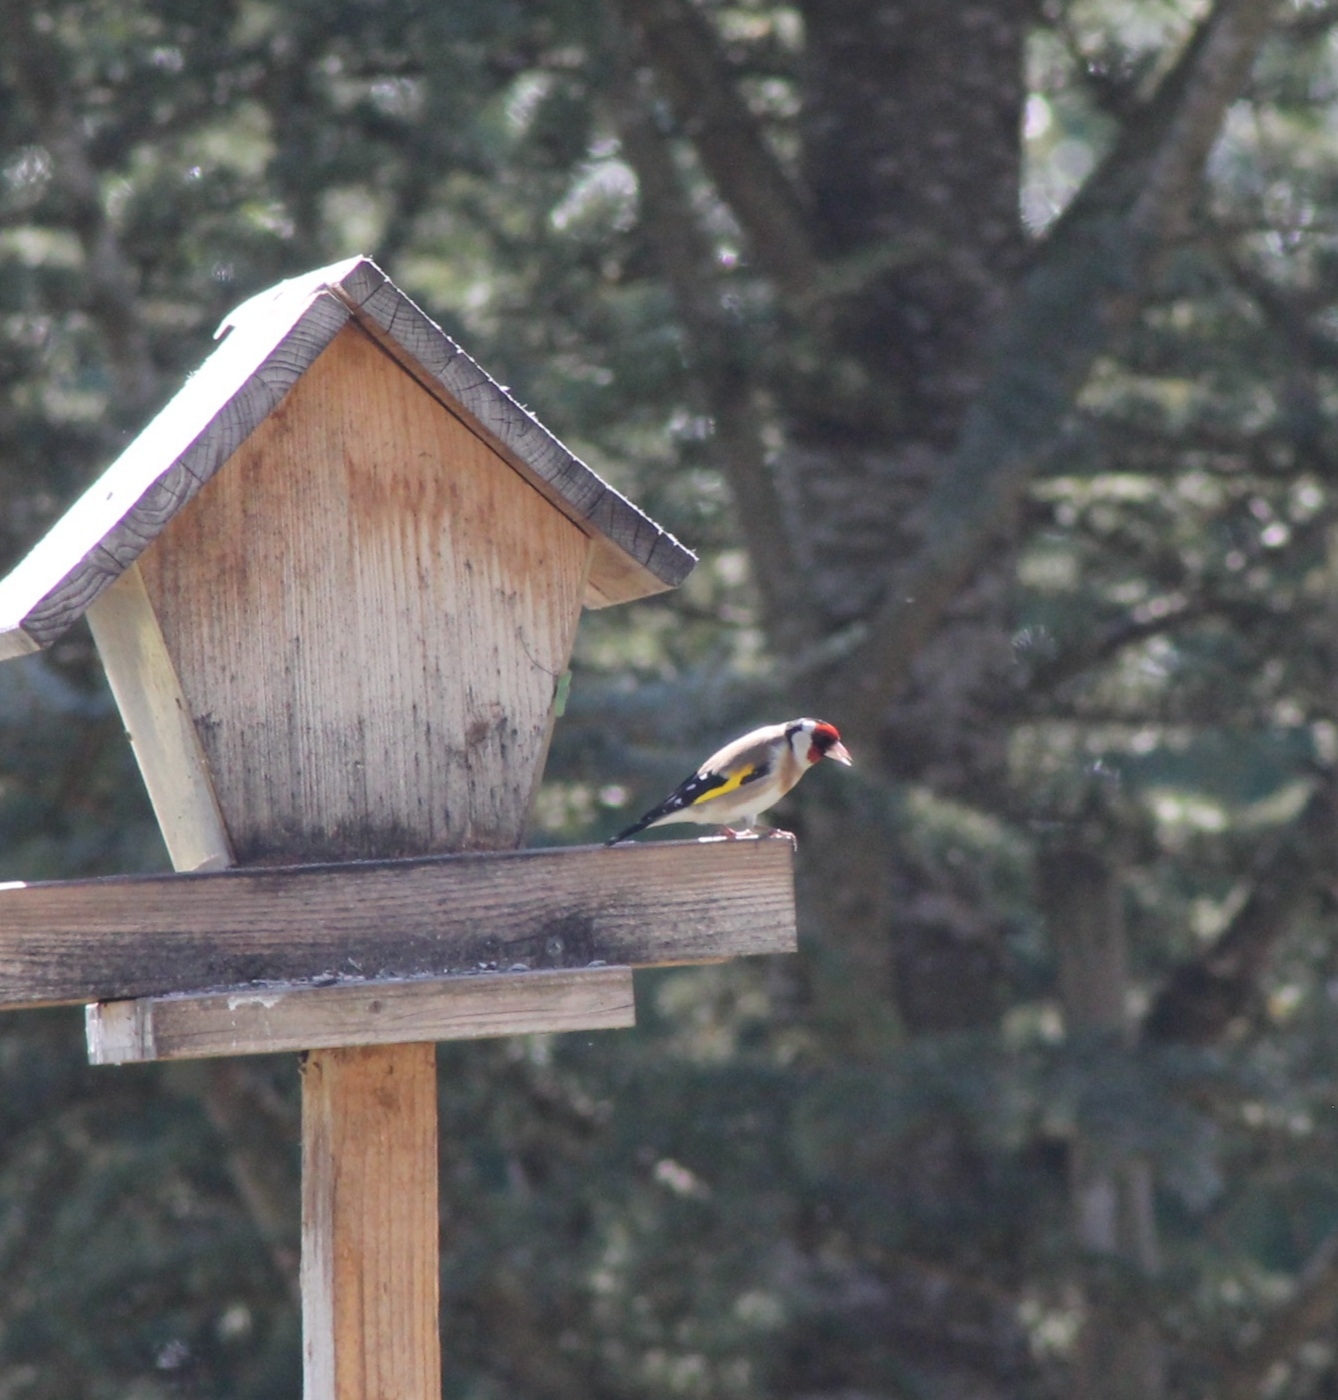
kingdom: Animalia
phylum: Chordata
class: Aves
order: Passeriformes
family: Fringillidae
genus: Carduelis
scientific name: Carduelis carduelis
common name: European goldfinch
